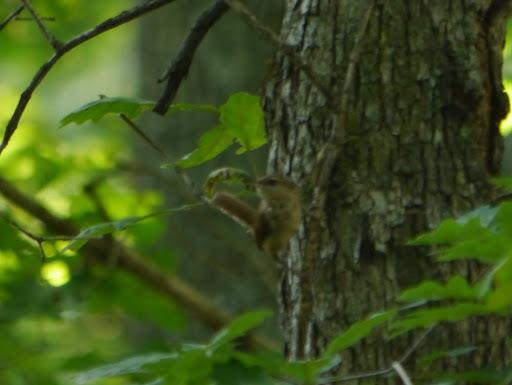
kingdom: Animalia
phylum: Chordata
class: Aves
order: Passeriformes
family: Troglodytidae
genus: Thryothorus
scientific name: Thryothorus ludovicianus
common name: Carolina wren
